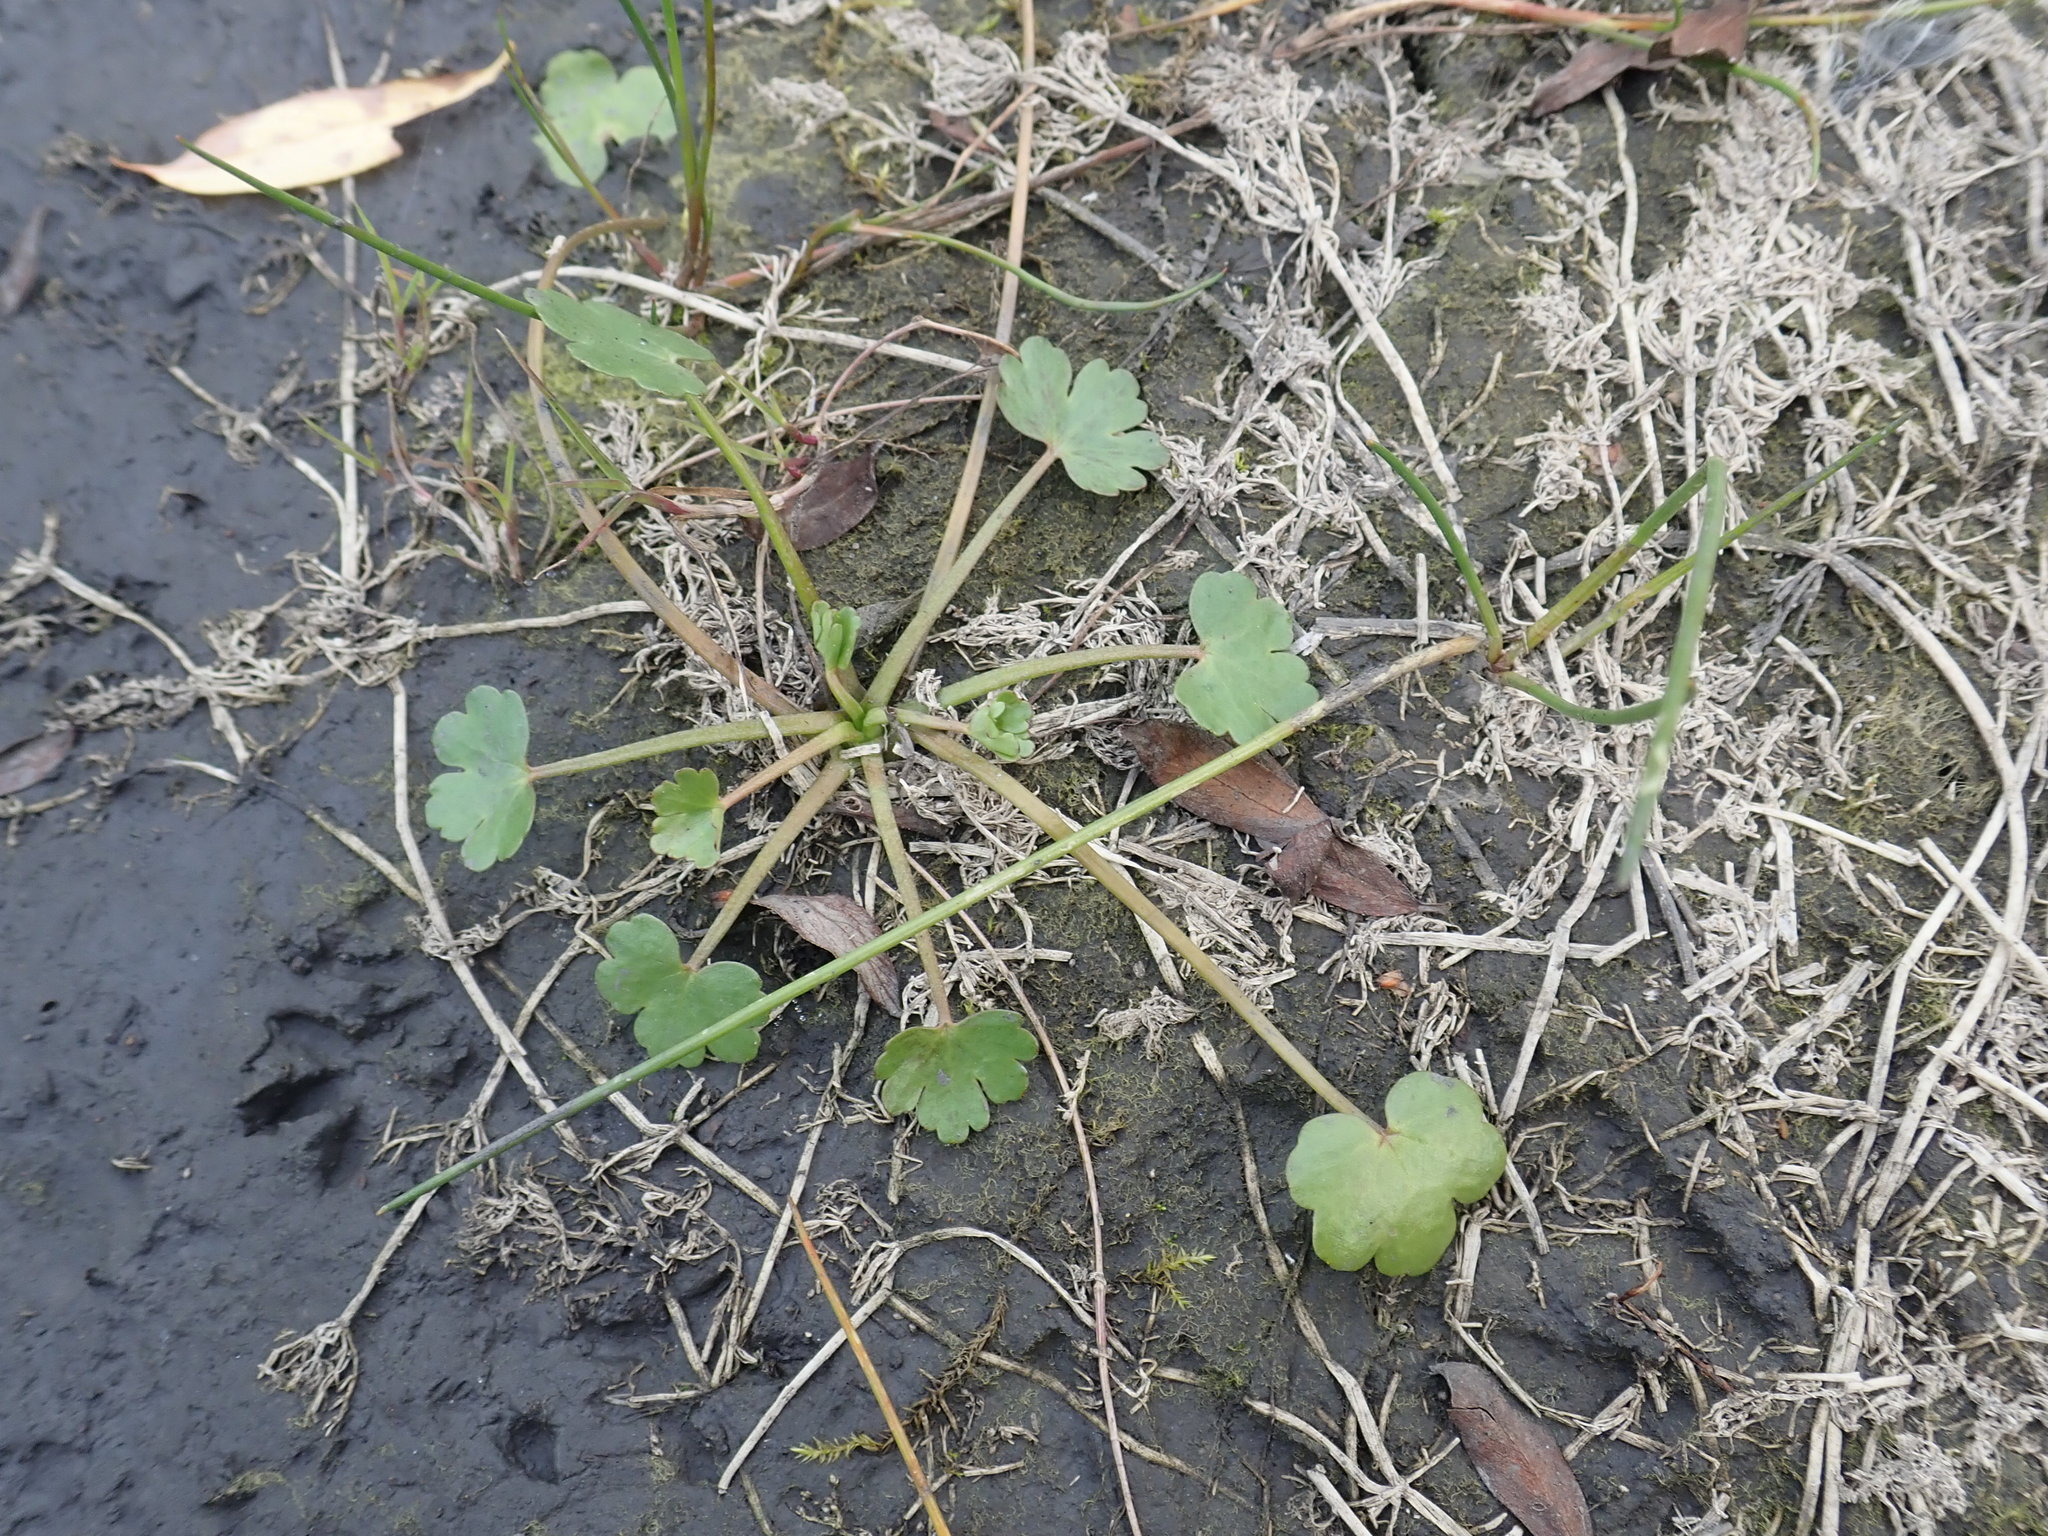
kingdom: Plantae
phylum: Tracheophyta
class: Magnoliopsida
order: Ranunculales
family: Ranunculaceae
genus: Ranunculus
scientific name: Ranunculus sceleratus
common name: Celery-leaved buttercup
